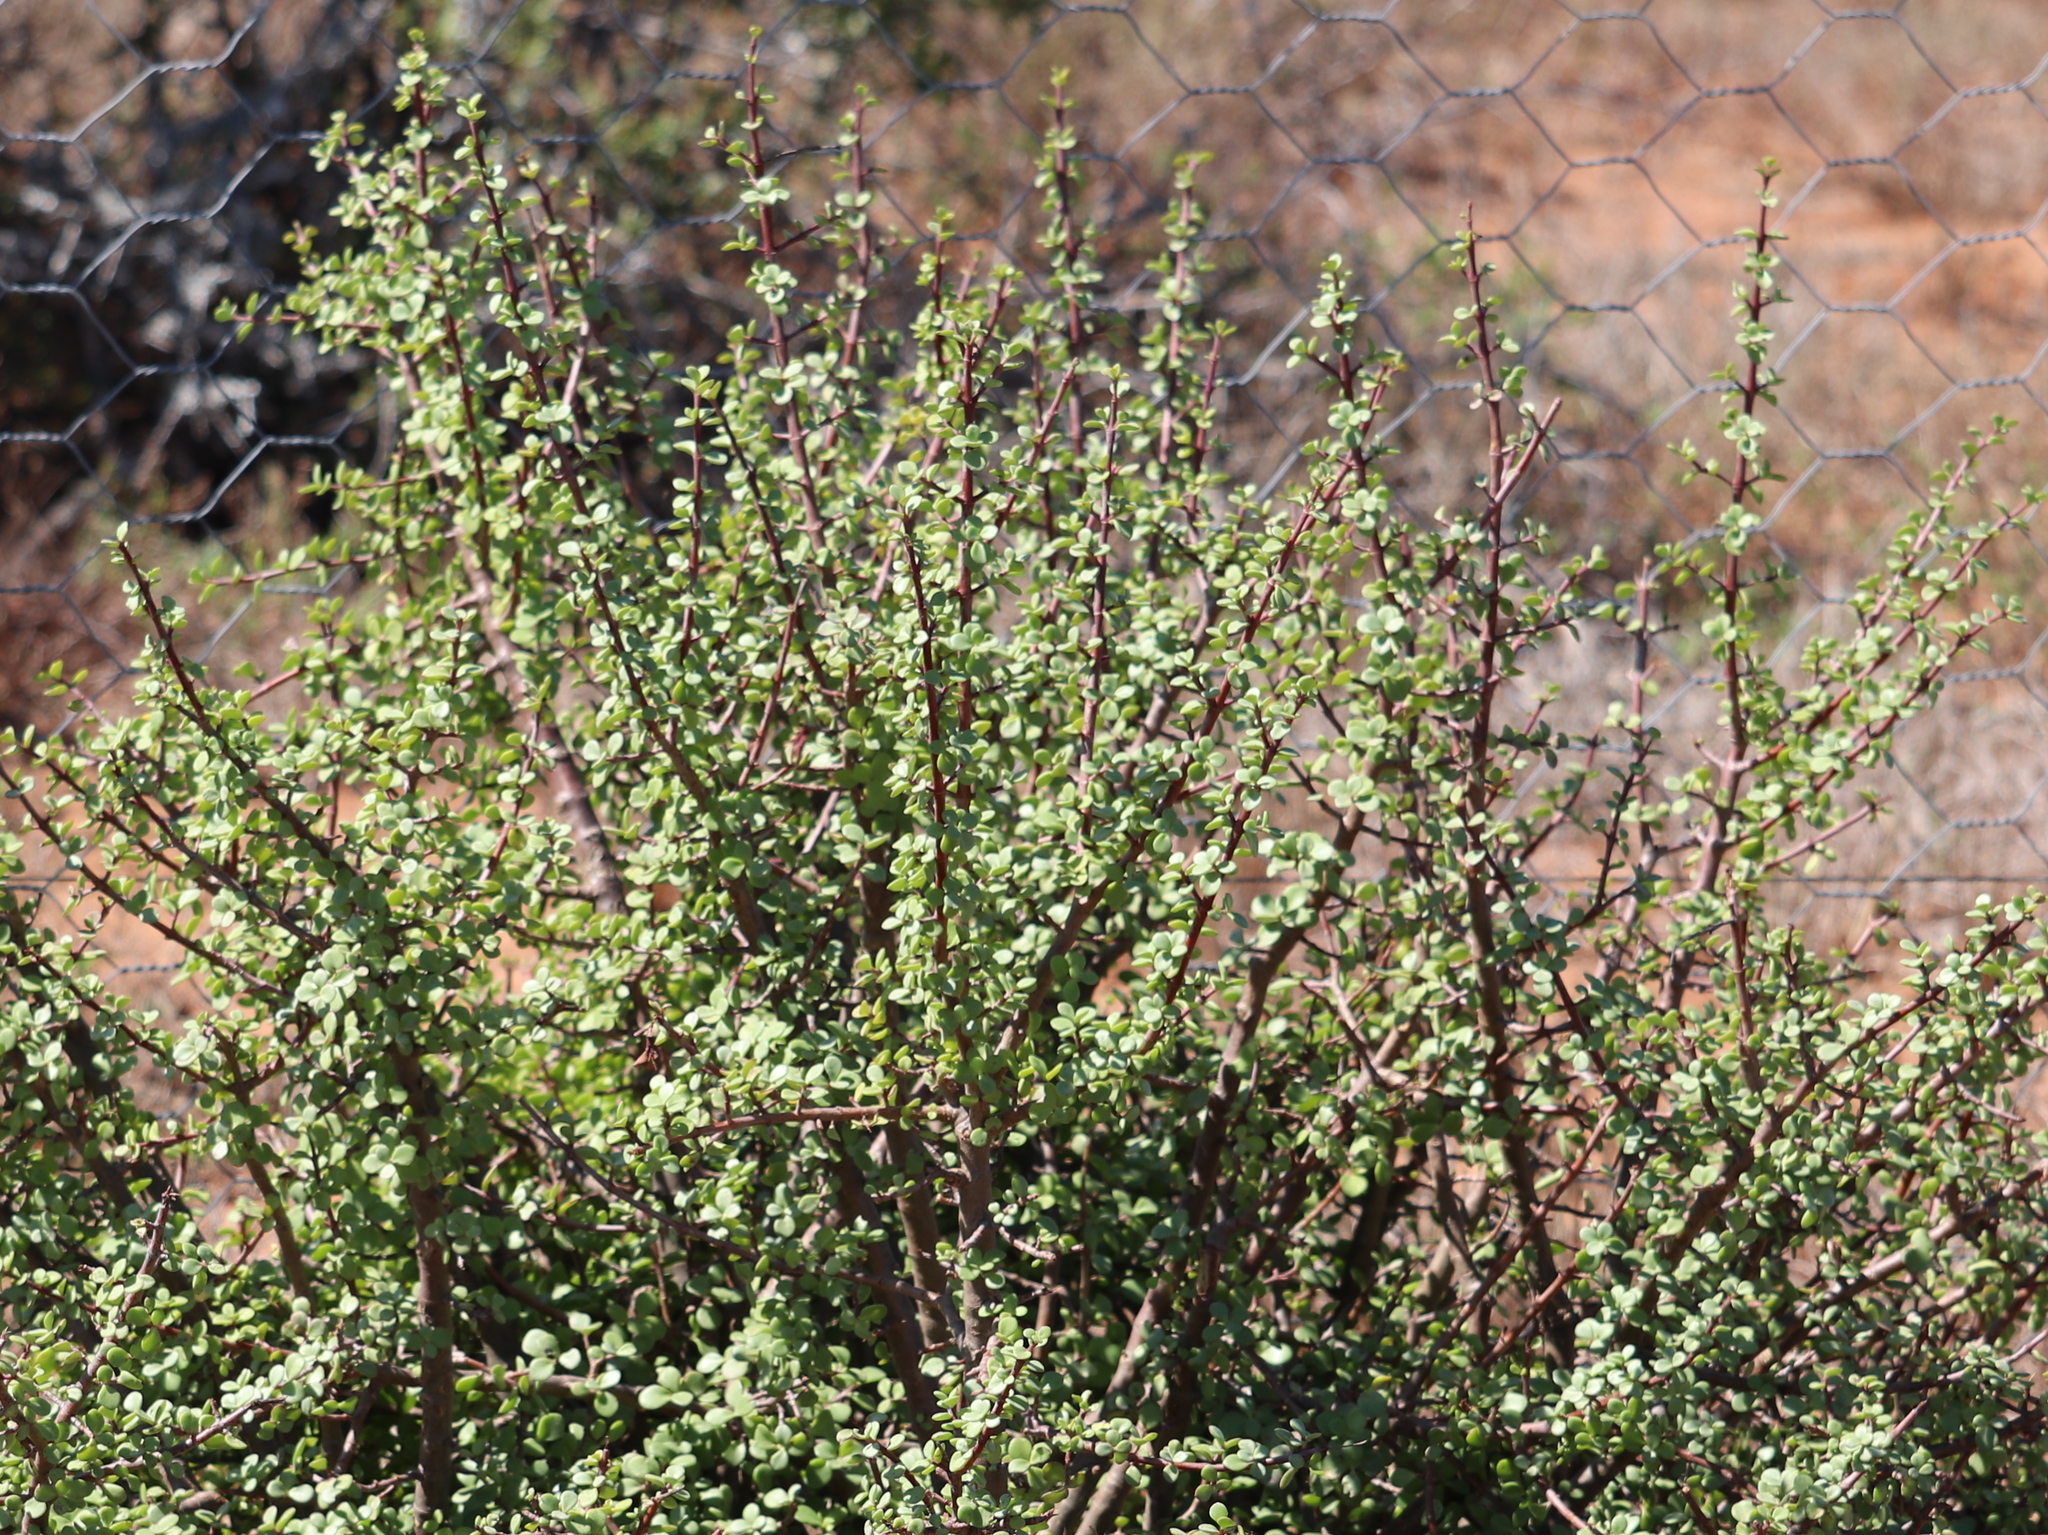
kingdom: Plantae
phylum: Tracheophyta
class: Magnoliopsida
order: Caryophyllales
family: Didiereaceae
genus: Portulacaria
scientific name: Portulacaria afra
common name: Elephant-bush
